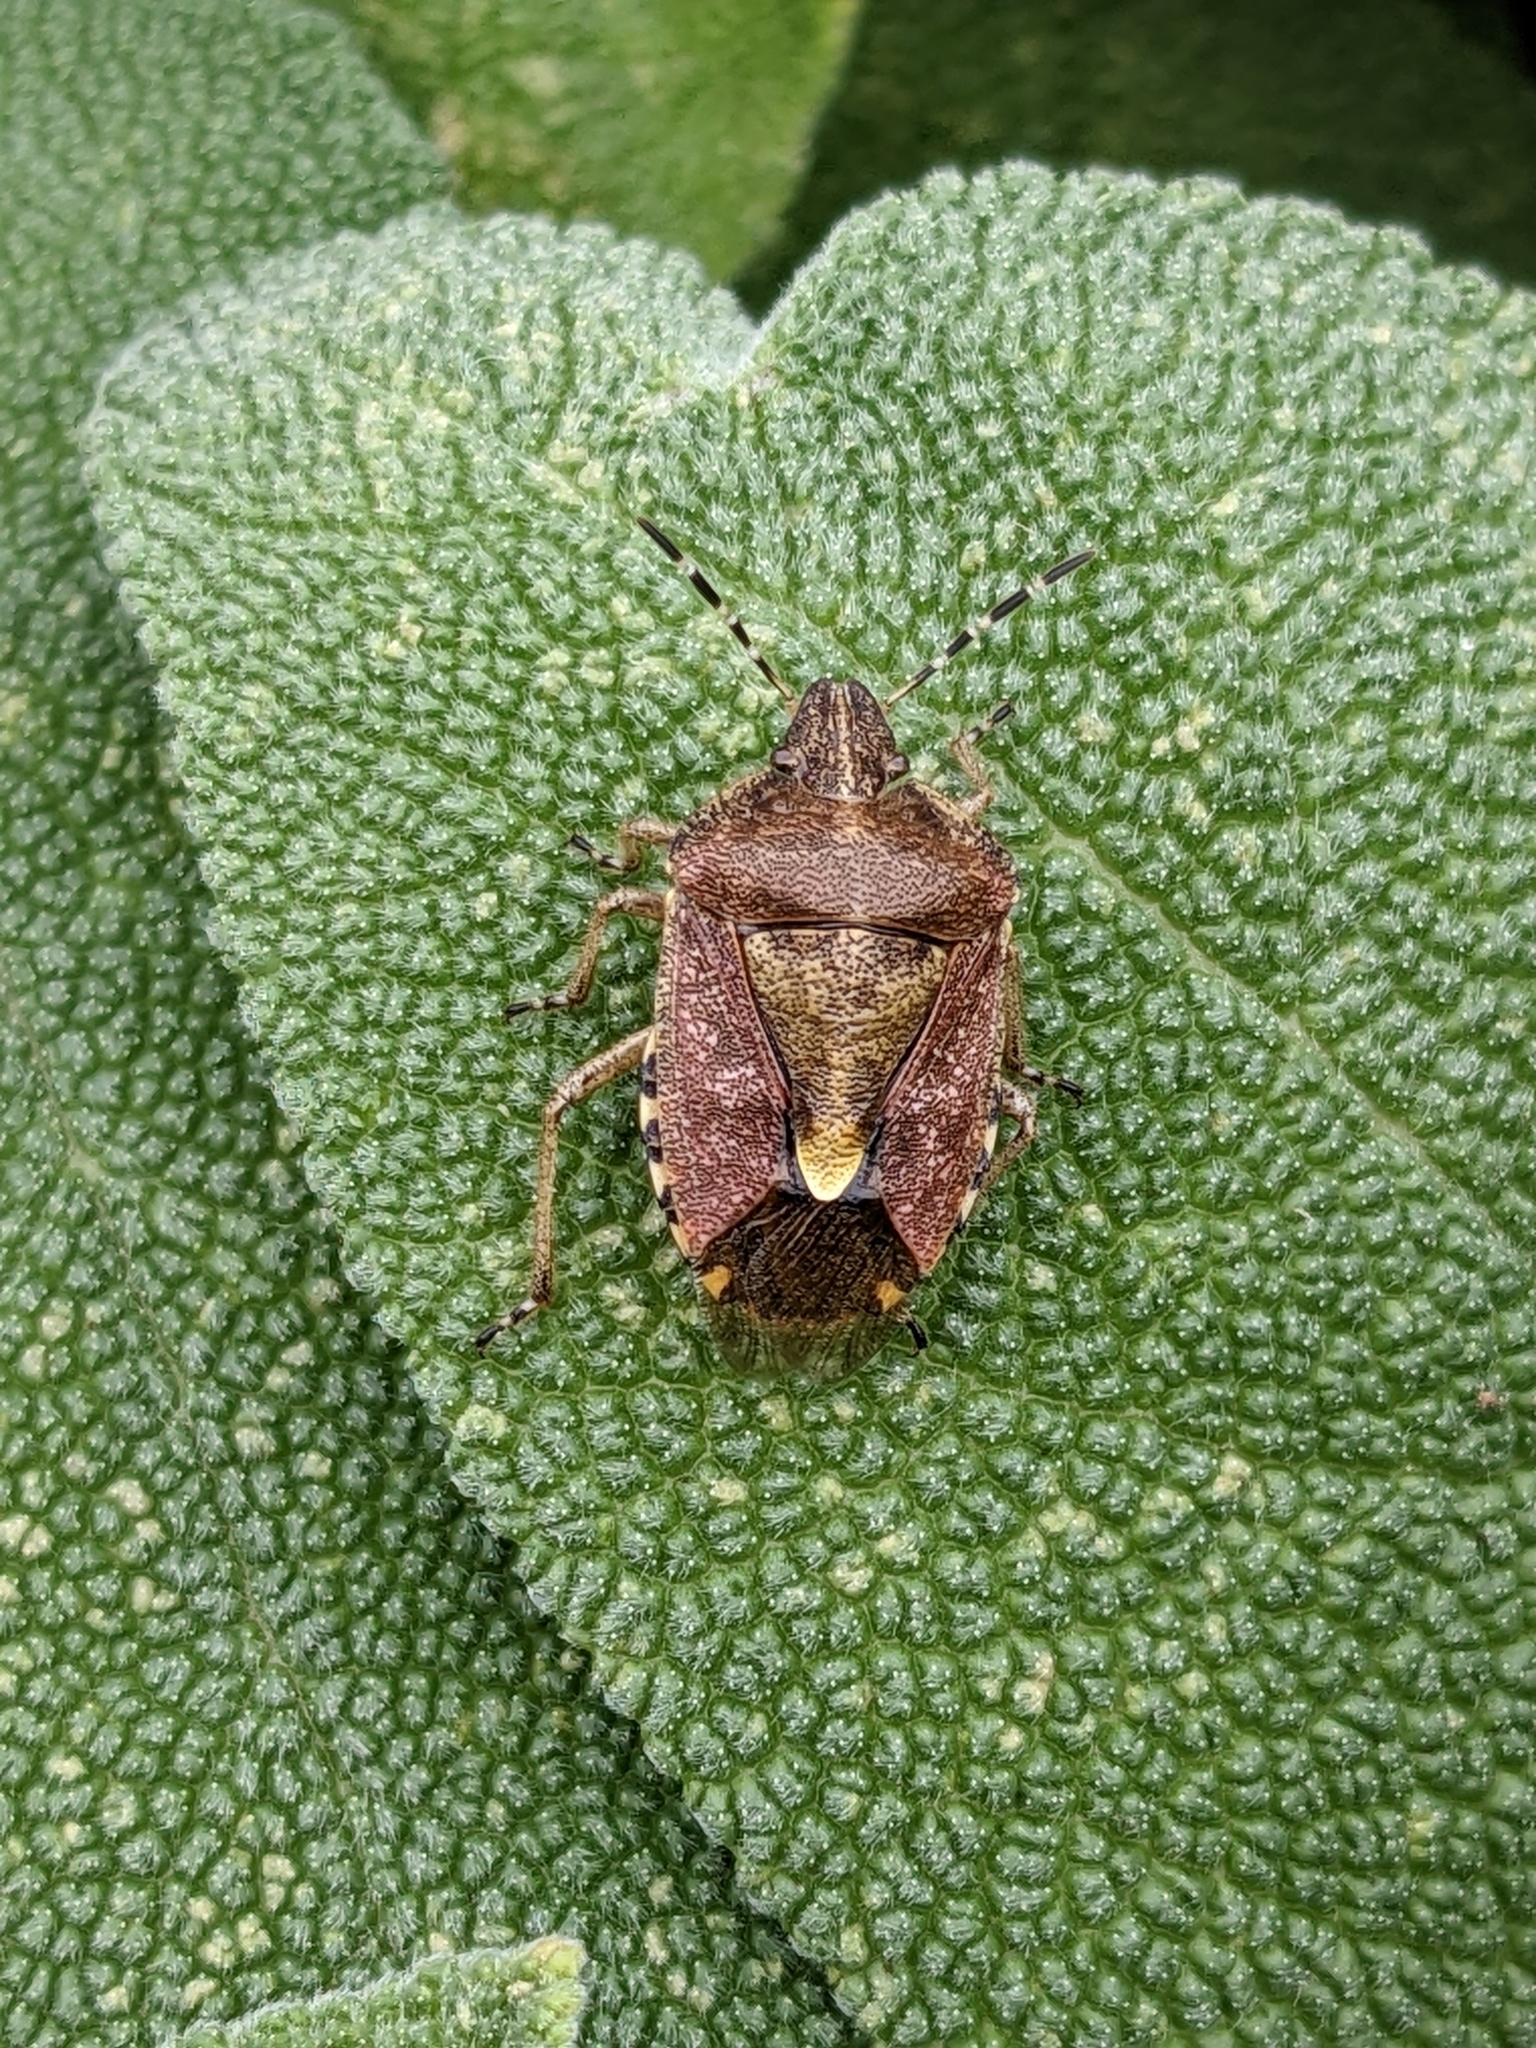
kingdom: Animalia
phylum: Arthropoda
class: Insecta
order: Hemiptera
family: Pentatomidae
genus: Dolycoris
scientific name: Dolycoris baccarum
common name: Sloe bug
